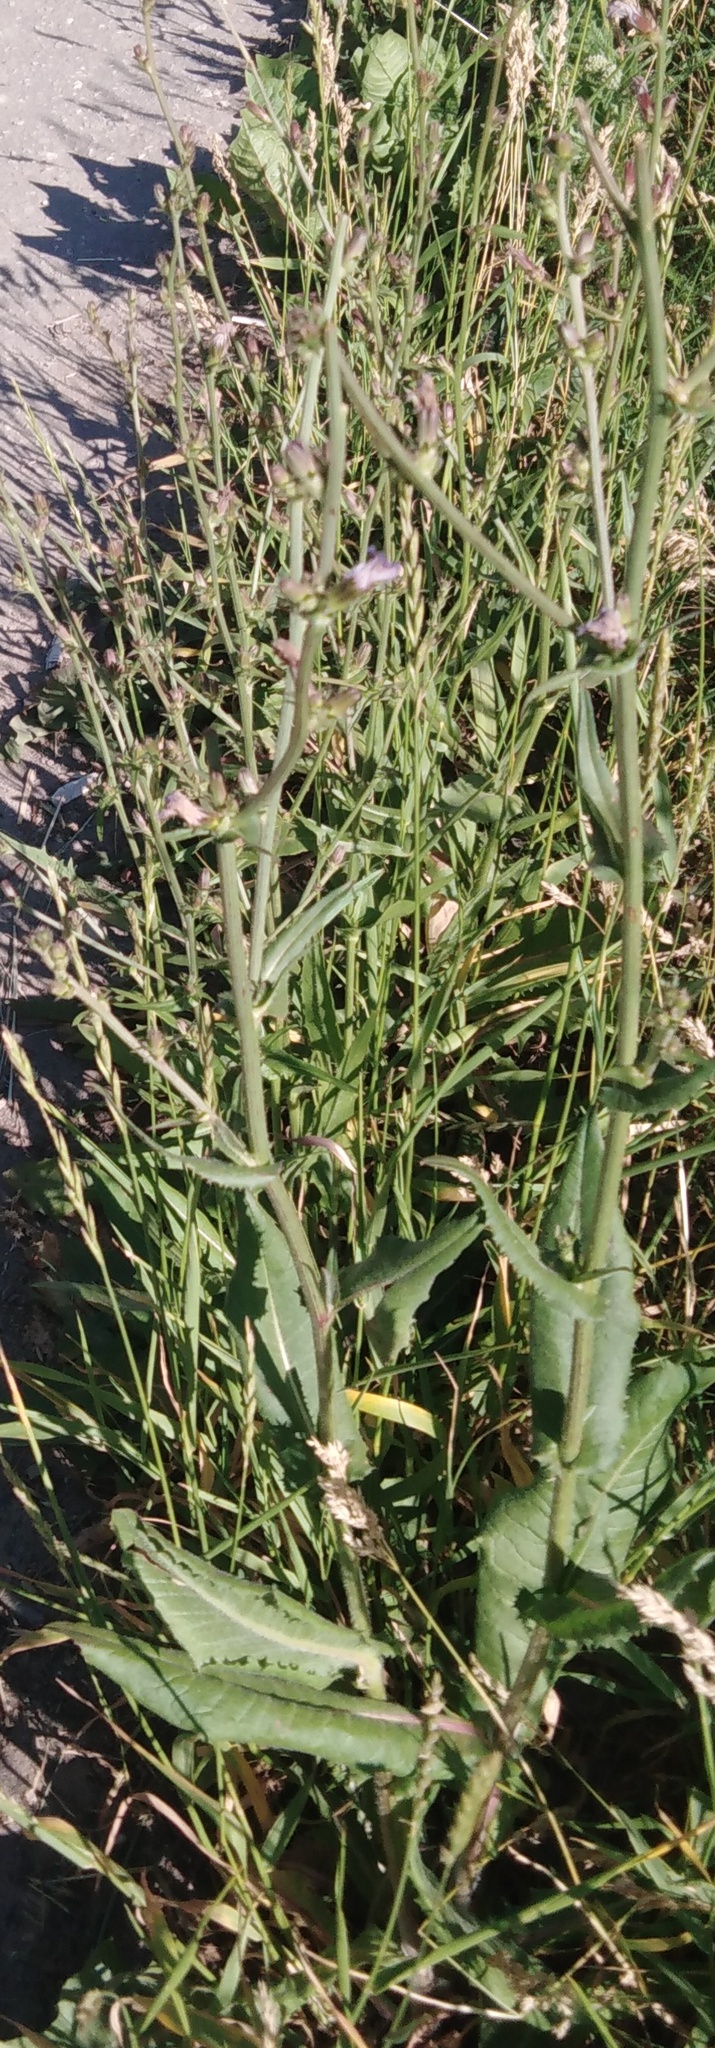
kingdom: Plantae
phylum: Tracheophyta
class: Magnoliopsida
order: Asterales
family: Asteraceae
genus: Cichorium
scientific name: Cichorium intybus
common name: Chicory
